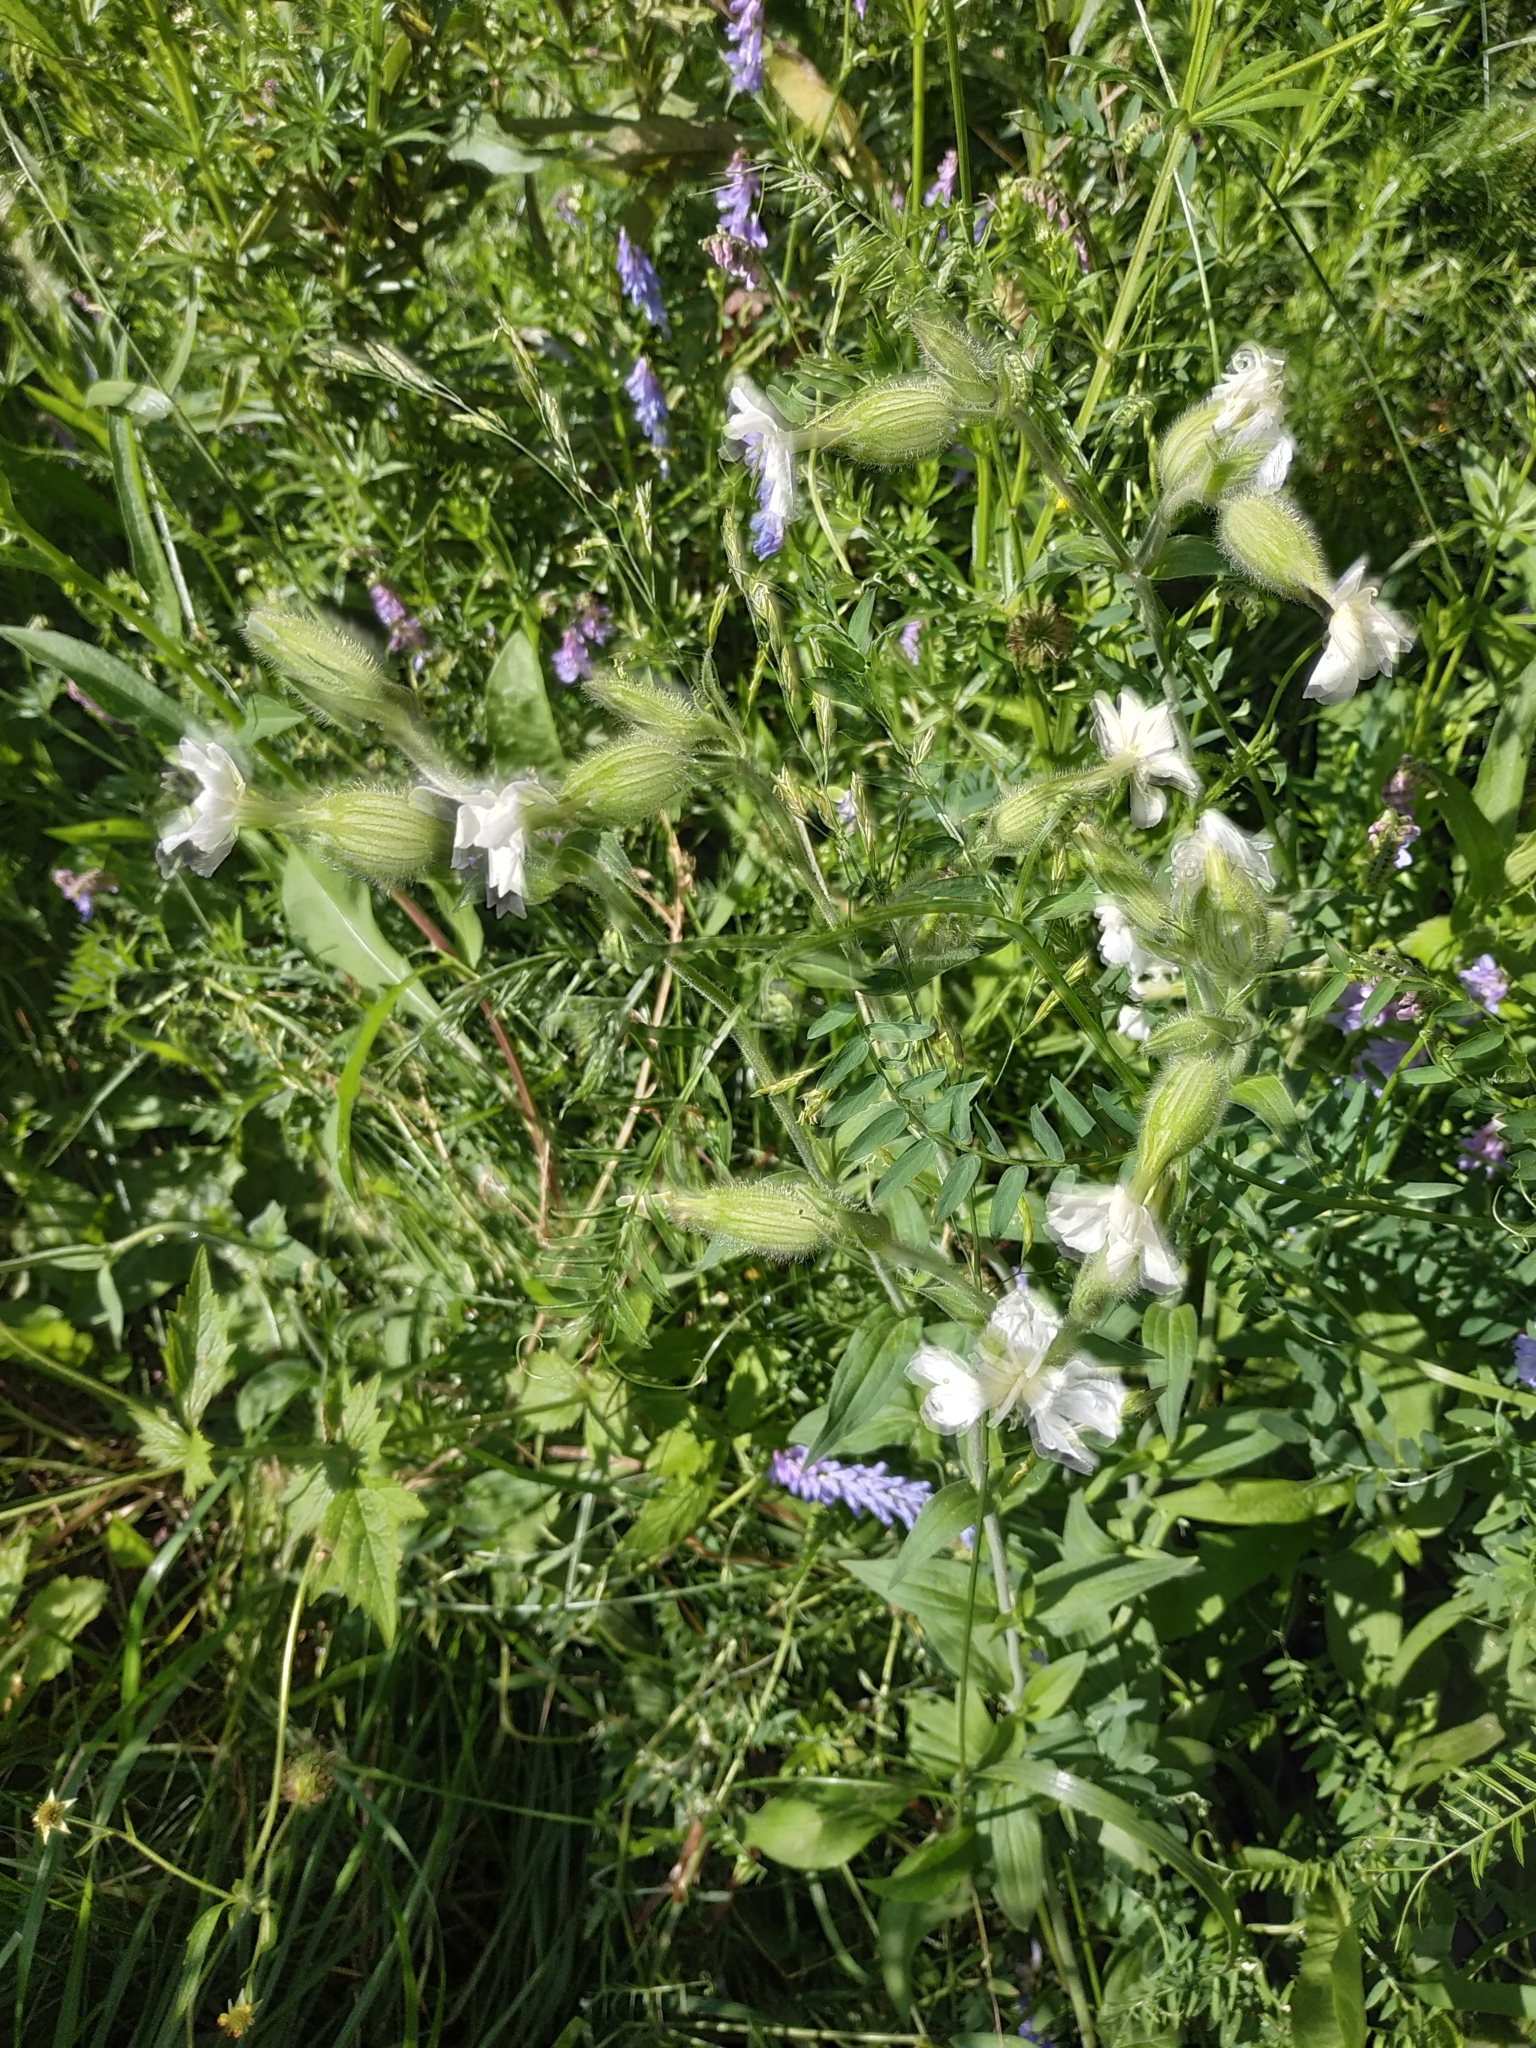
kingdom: Plantae
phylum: Tracheophyta
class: Magnoliopsida
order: Caryophyllales
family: Caryophyllaceae
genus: Silene
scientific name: Silene latifolia
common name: White campion
